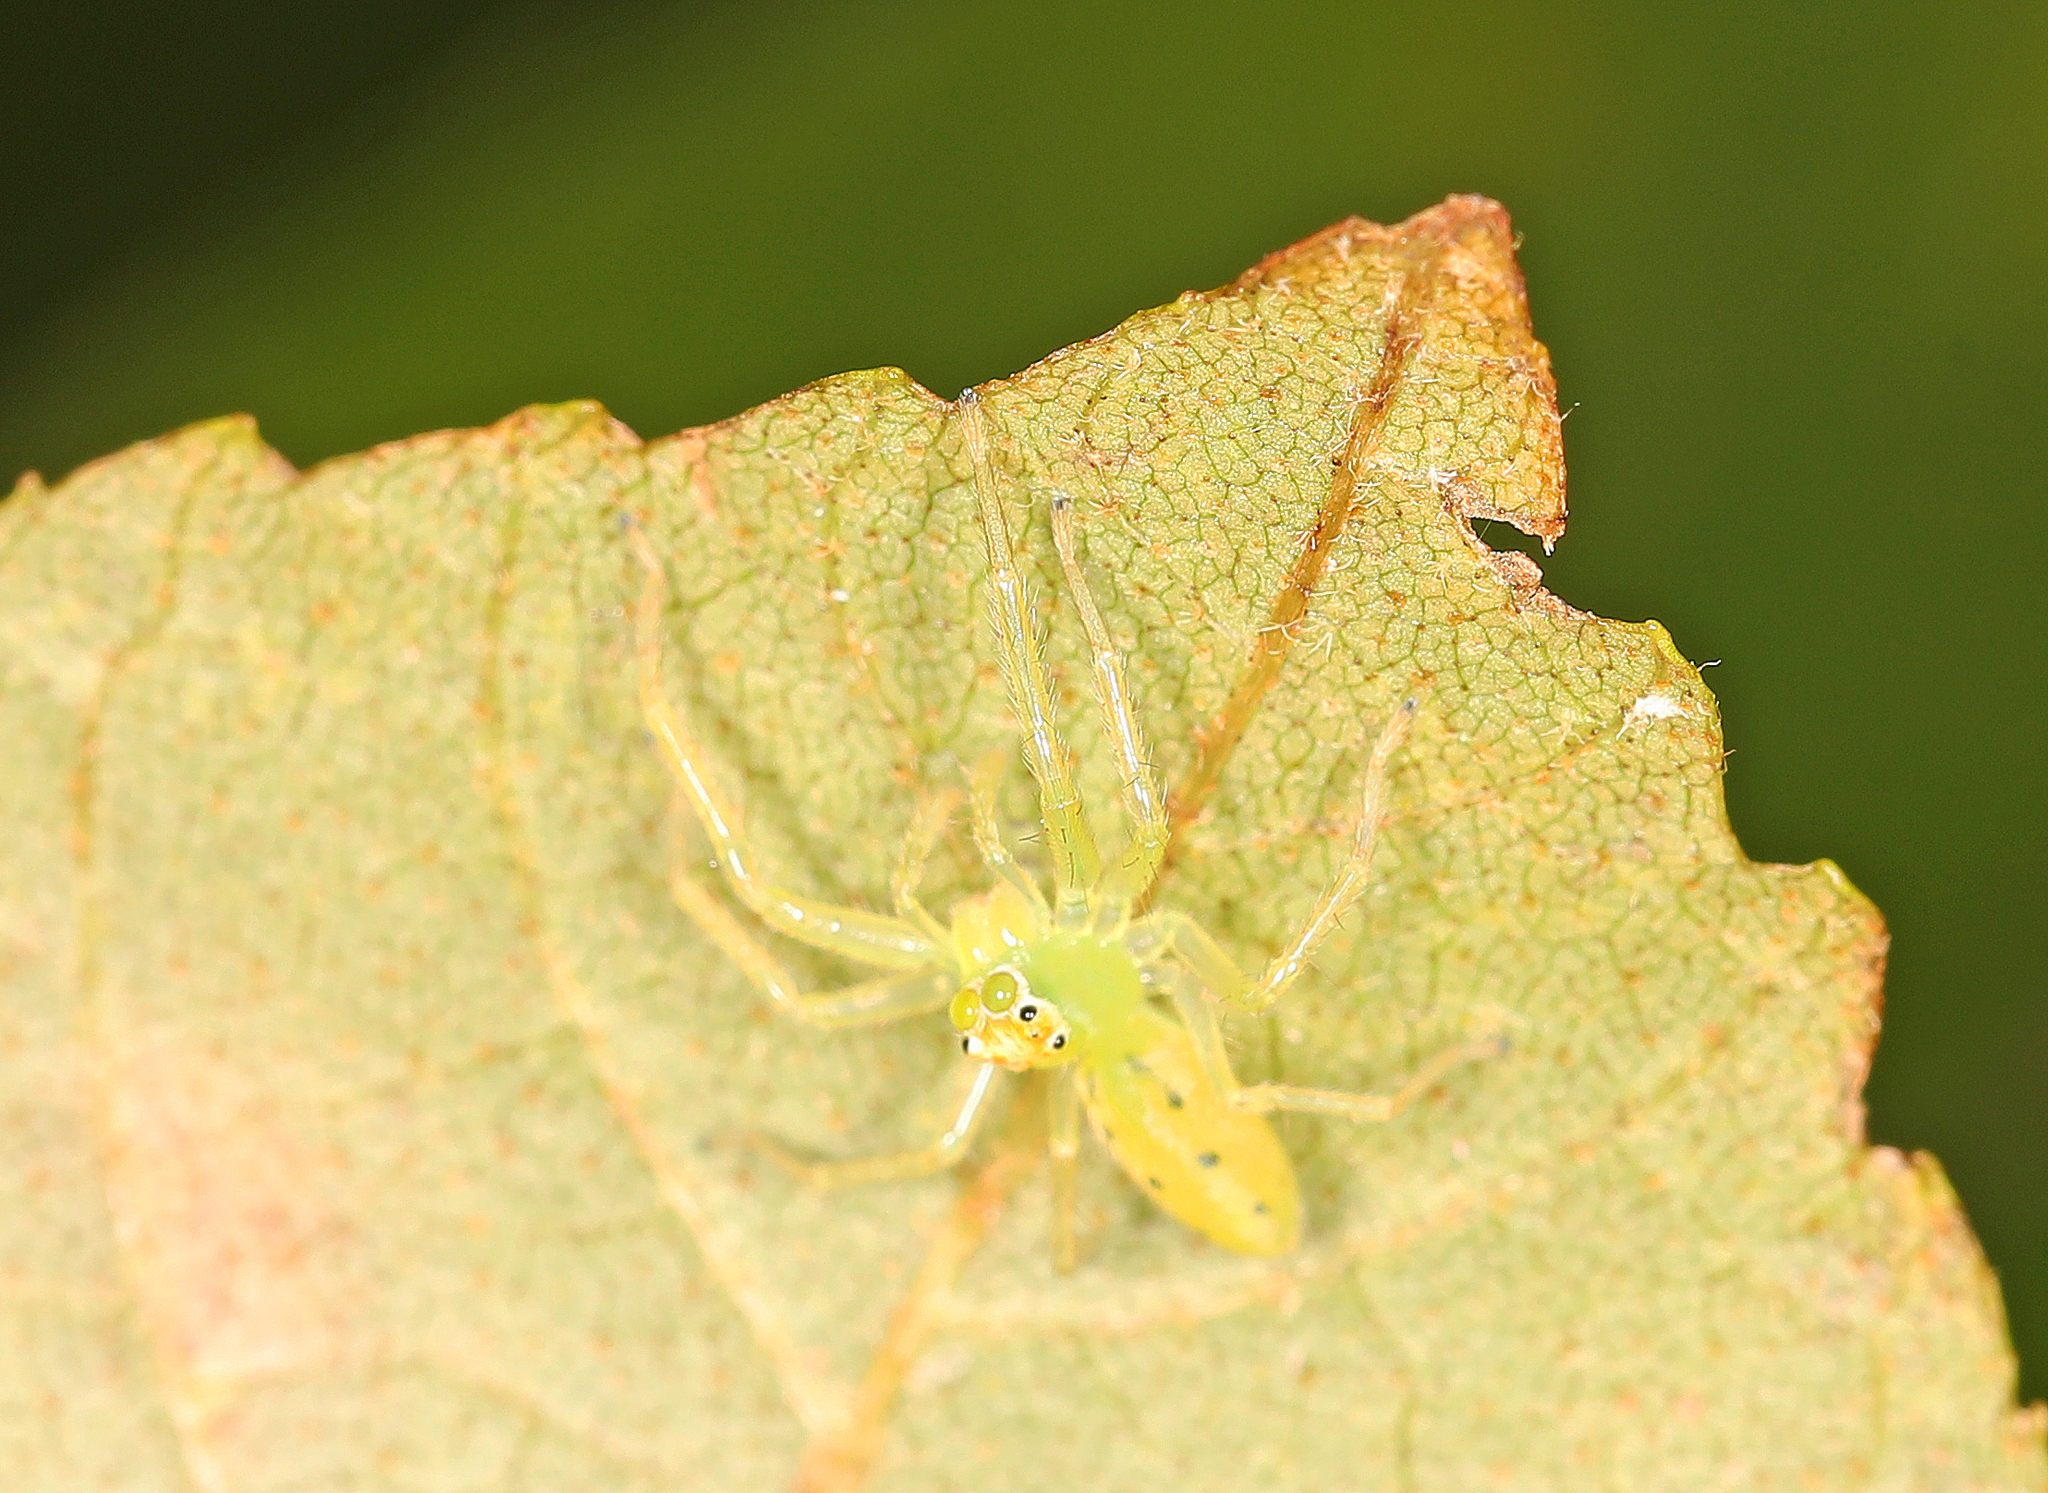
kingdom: Animalia
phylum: Arthropoda
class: Arachnida
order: Araneae
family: Salticidae
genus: Lyssomanes
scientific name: Lyssomanes viridis
